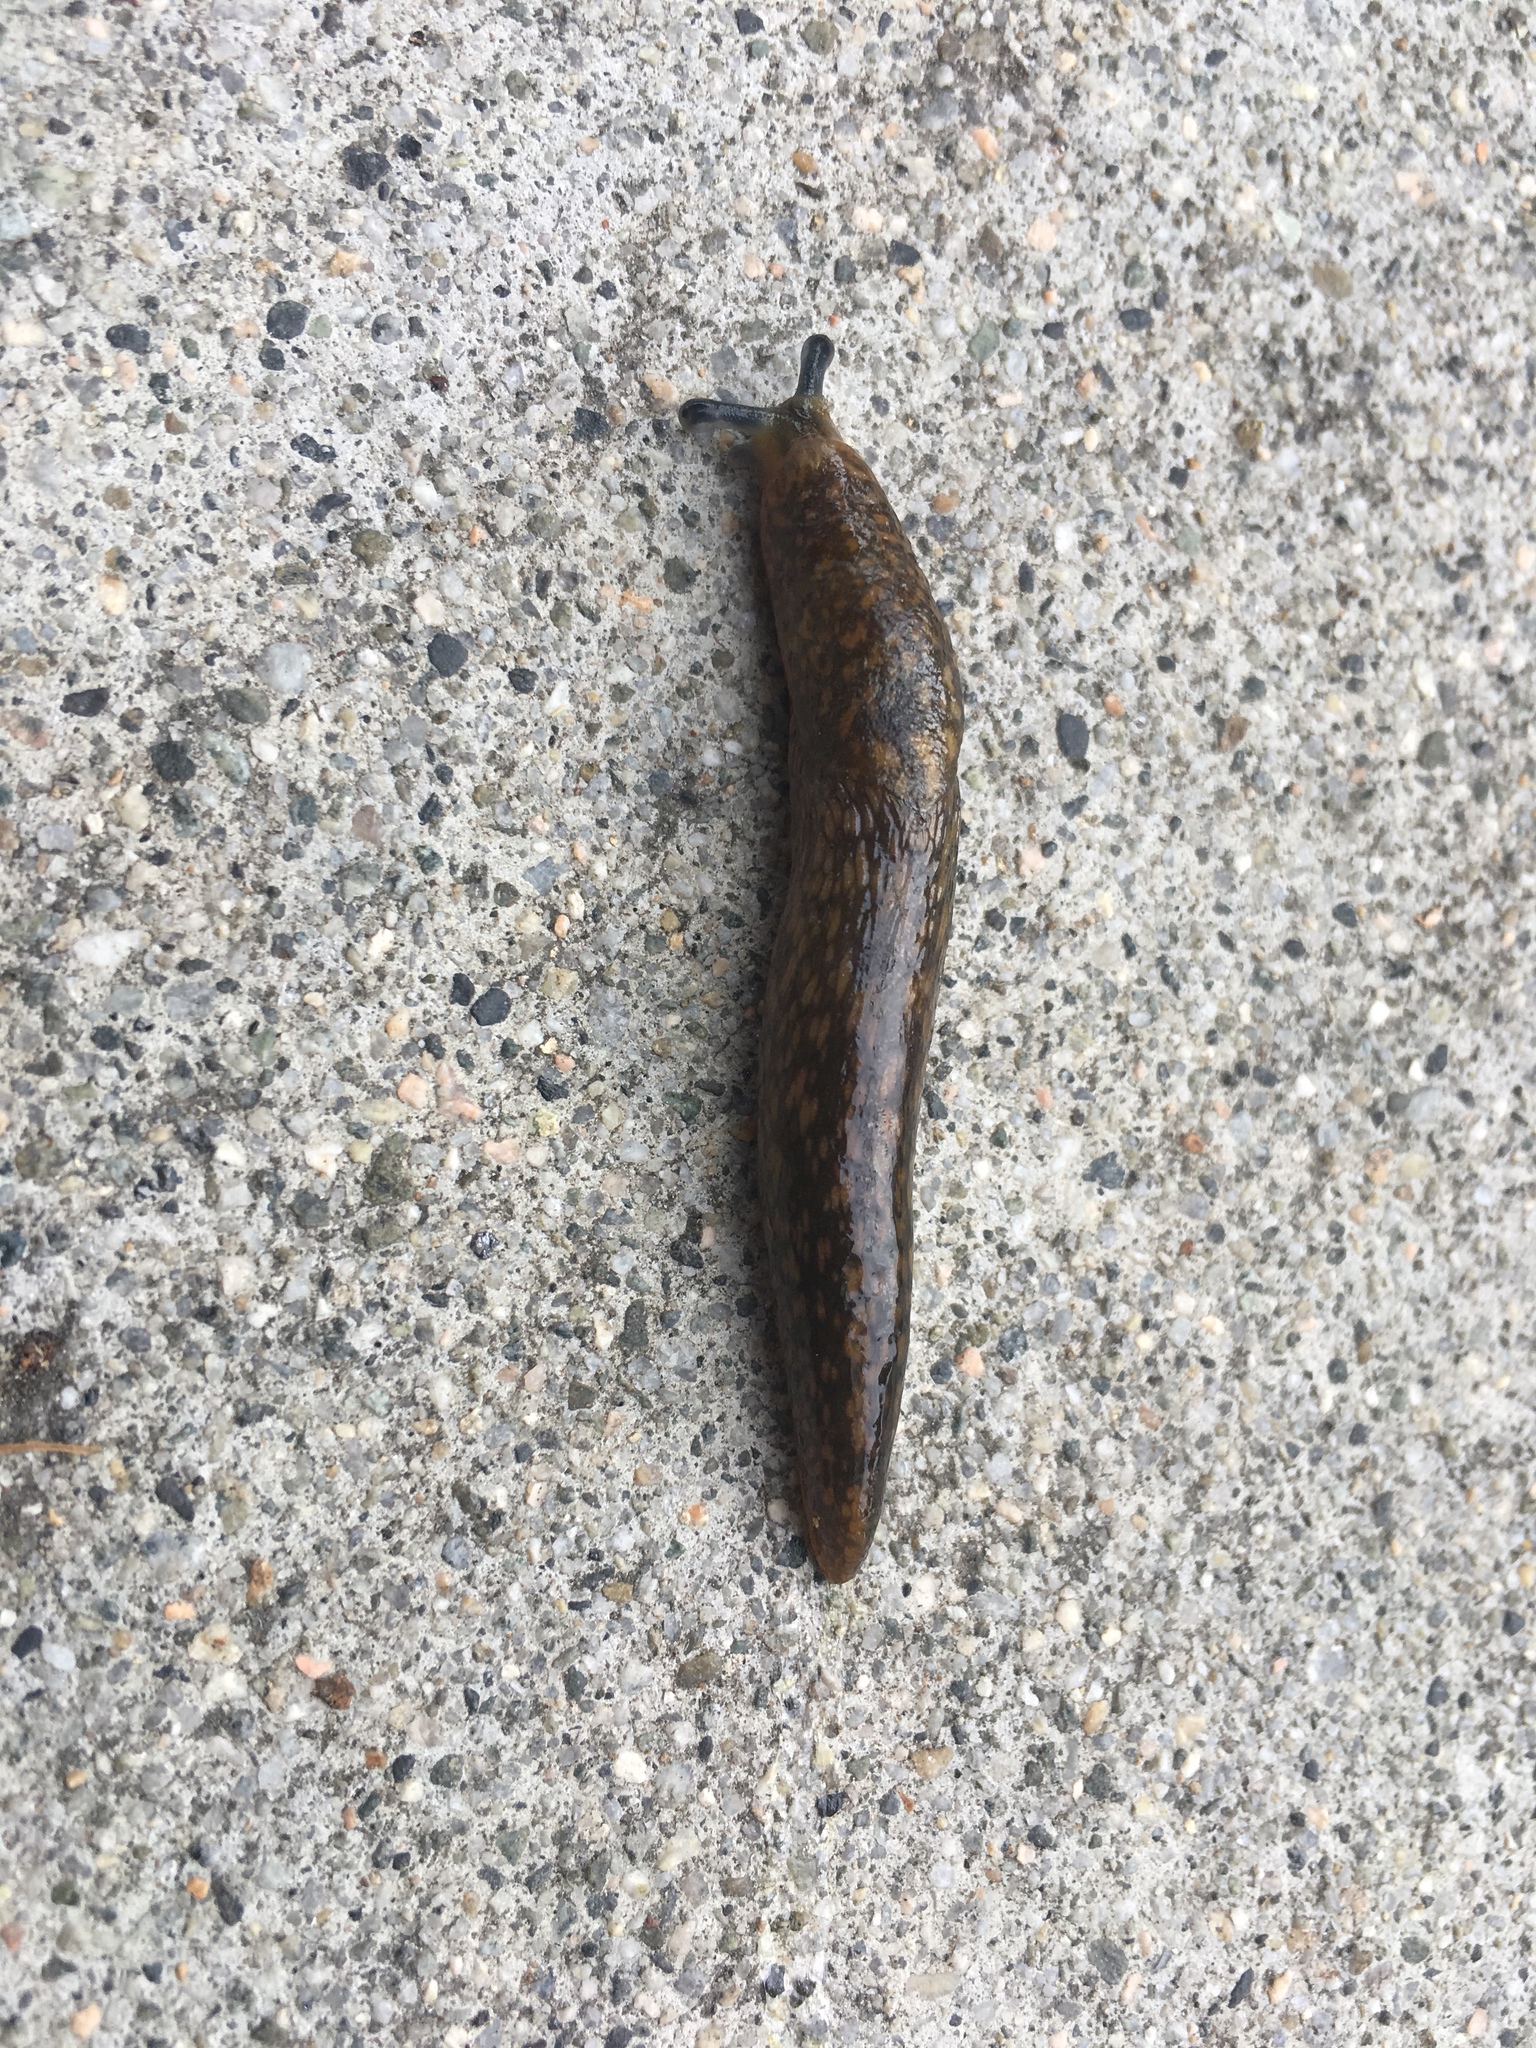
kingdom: Animalia
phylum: Mollusca
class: Gastropoda
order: Stylommatophora
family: Limacidae
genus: Limacus
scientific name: Limacus flavus
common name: Yellow gardenslug
